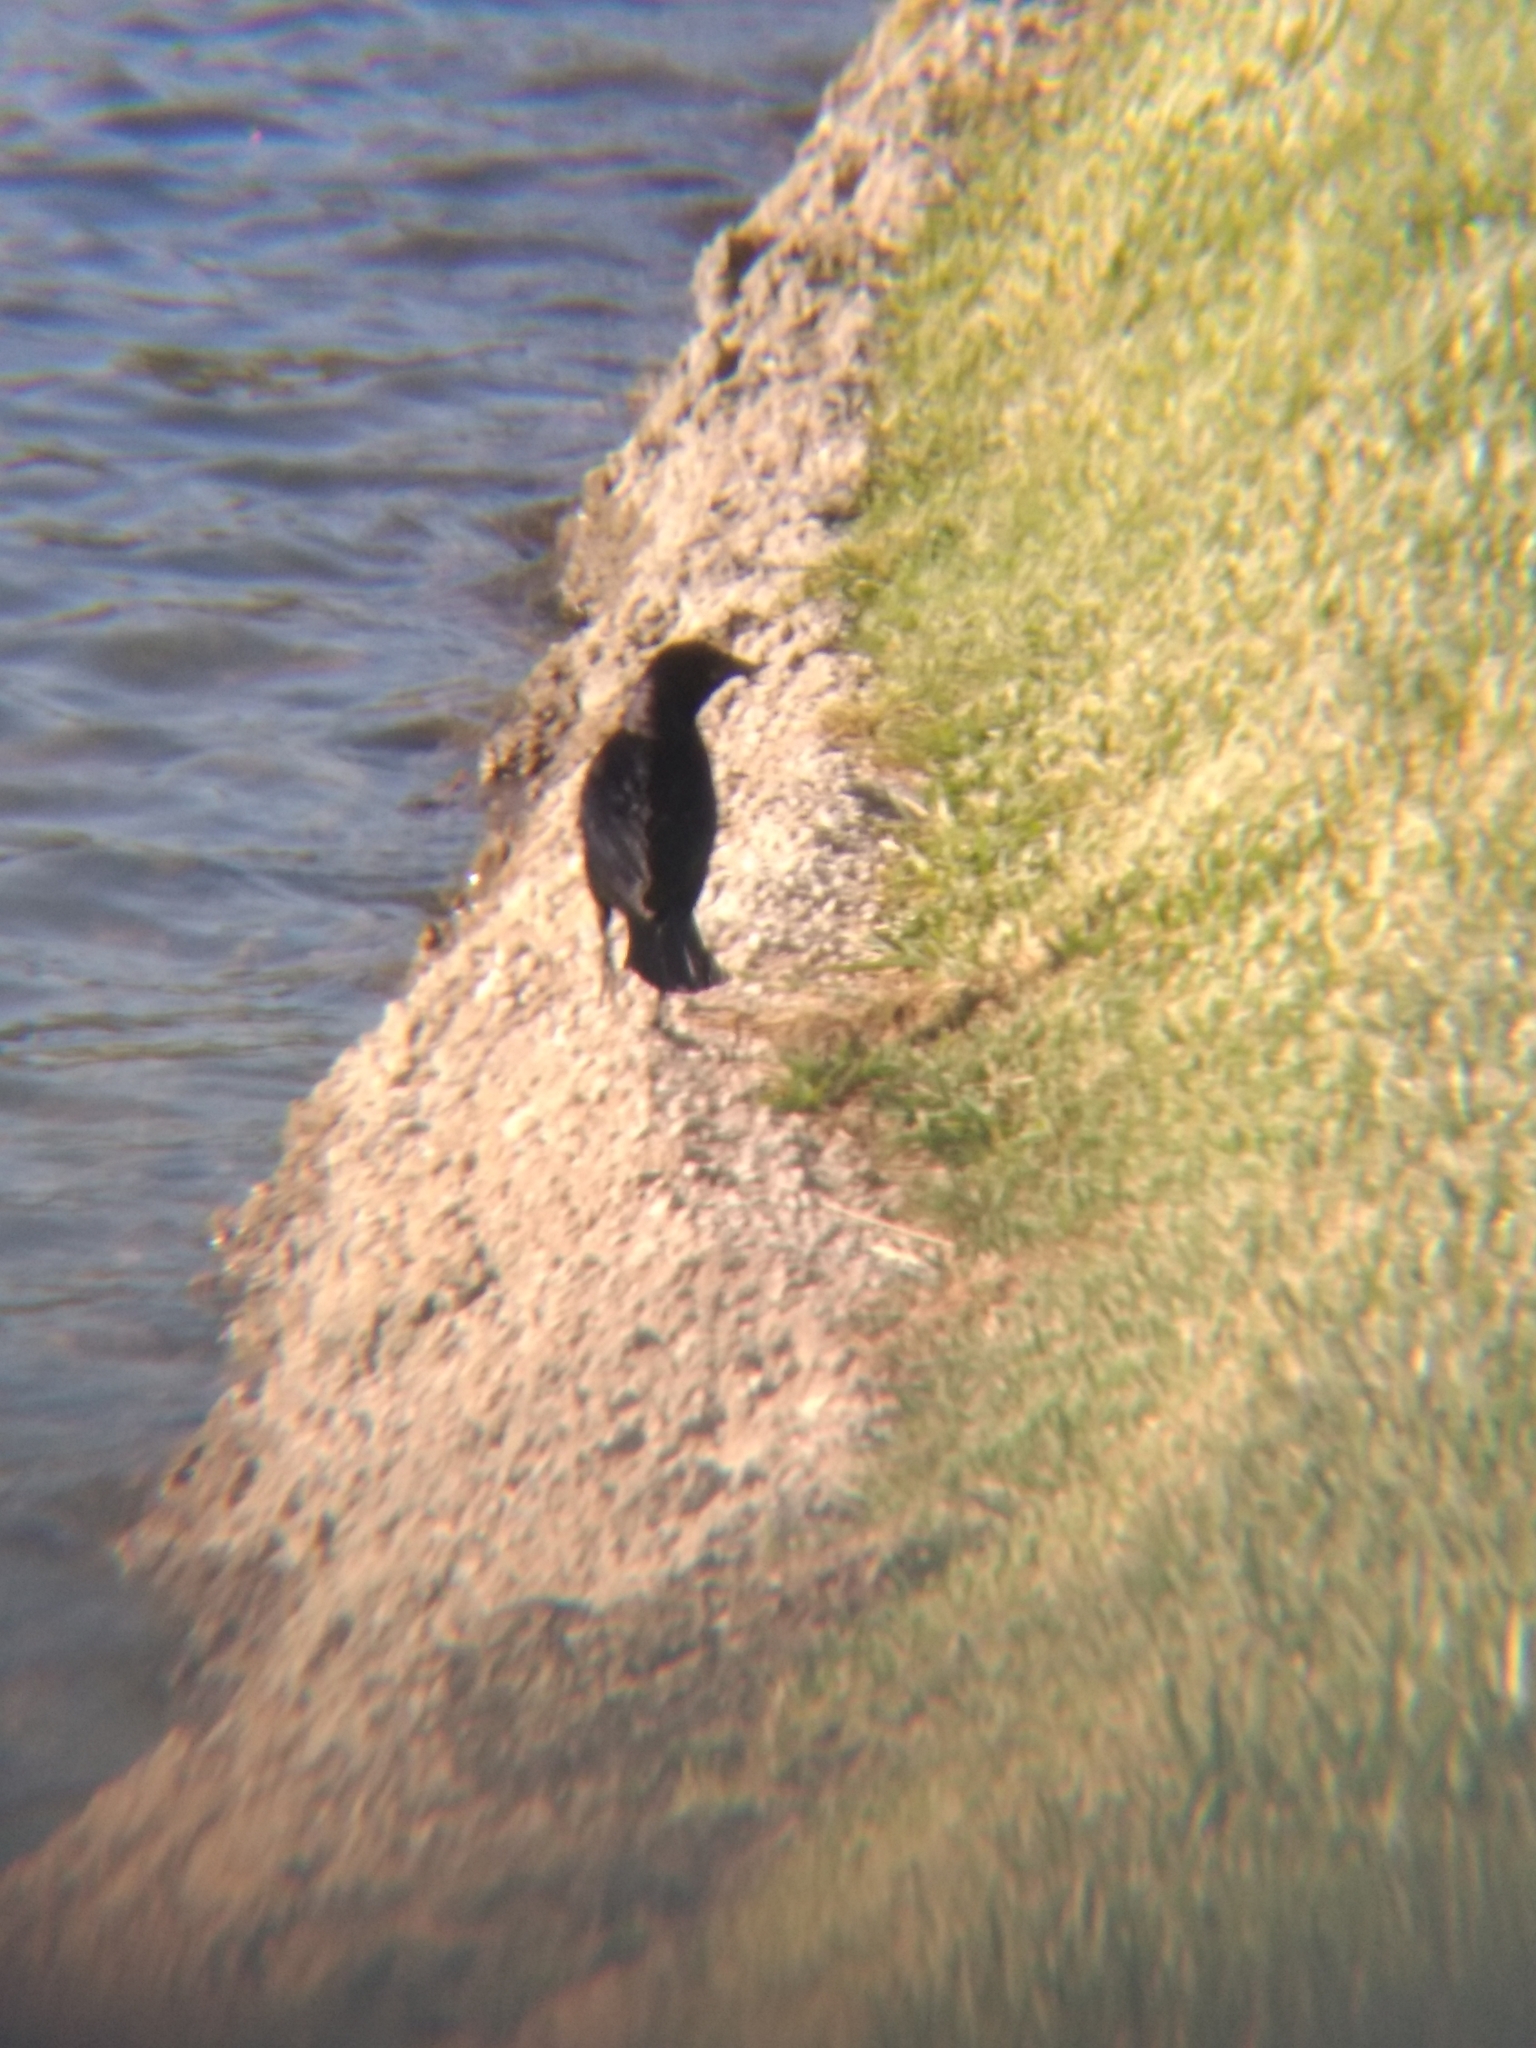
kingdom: Animalia
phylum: Chordata
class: Aves
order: Passeriformes
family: Icteridae
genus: Euphagus
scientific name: Euphagus cyanocephalus
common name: Brewer's blackbird
